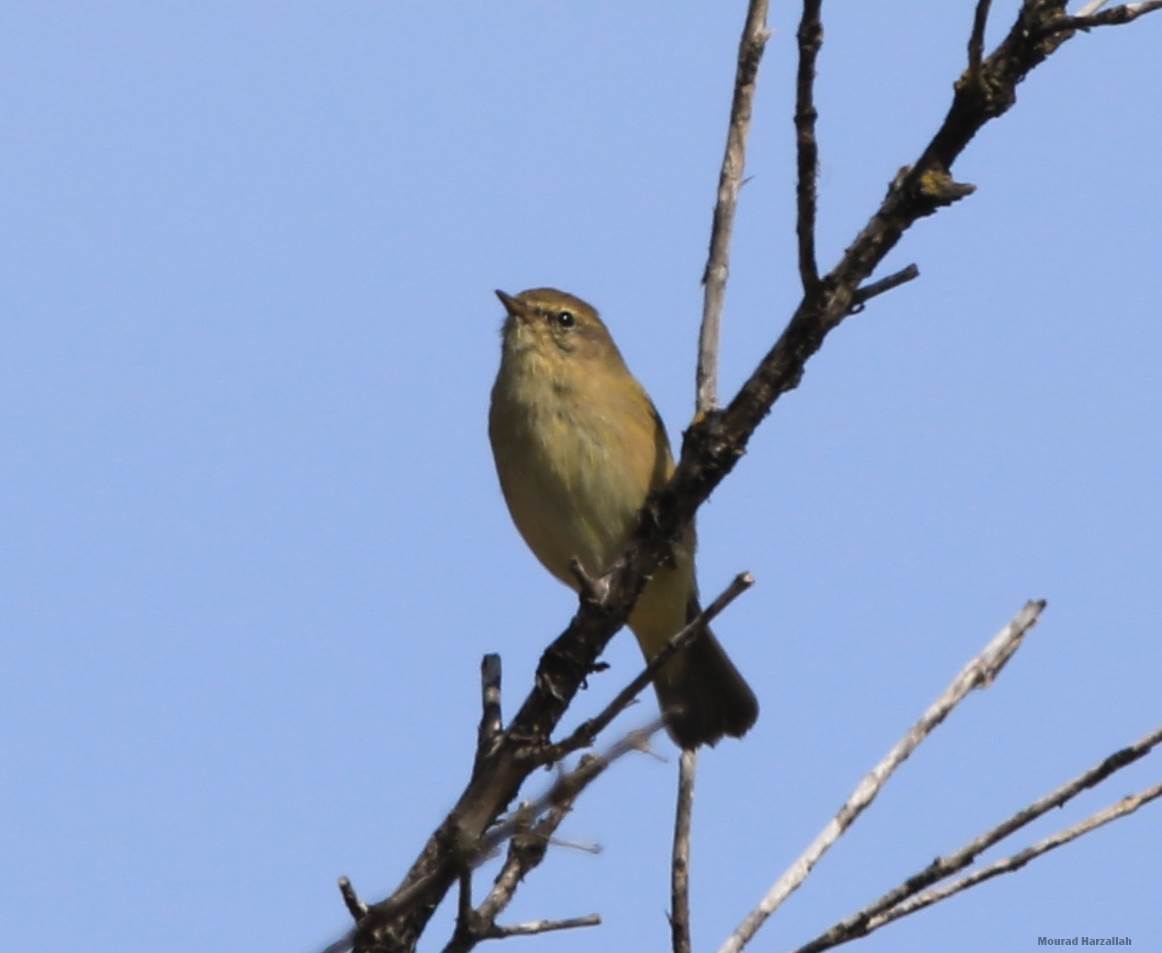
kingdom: Animalia
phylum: Chordata
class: Aves
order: Passeriformes
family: Phylloscopidae
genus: Phylloscopus
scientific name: Phylloscopus collybita
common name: Common chiffchaff
